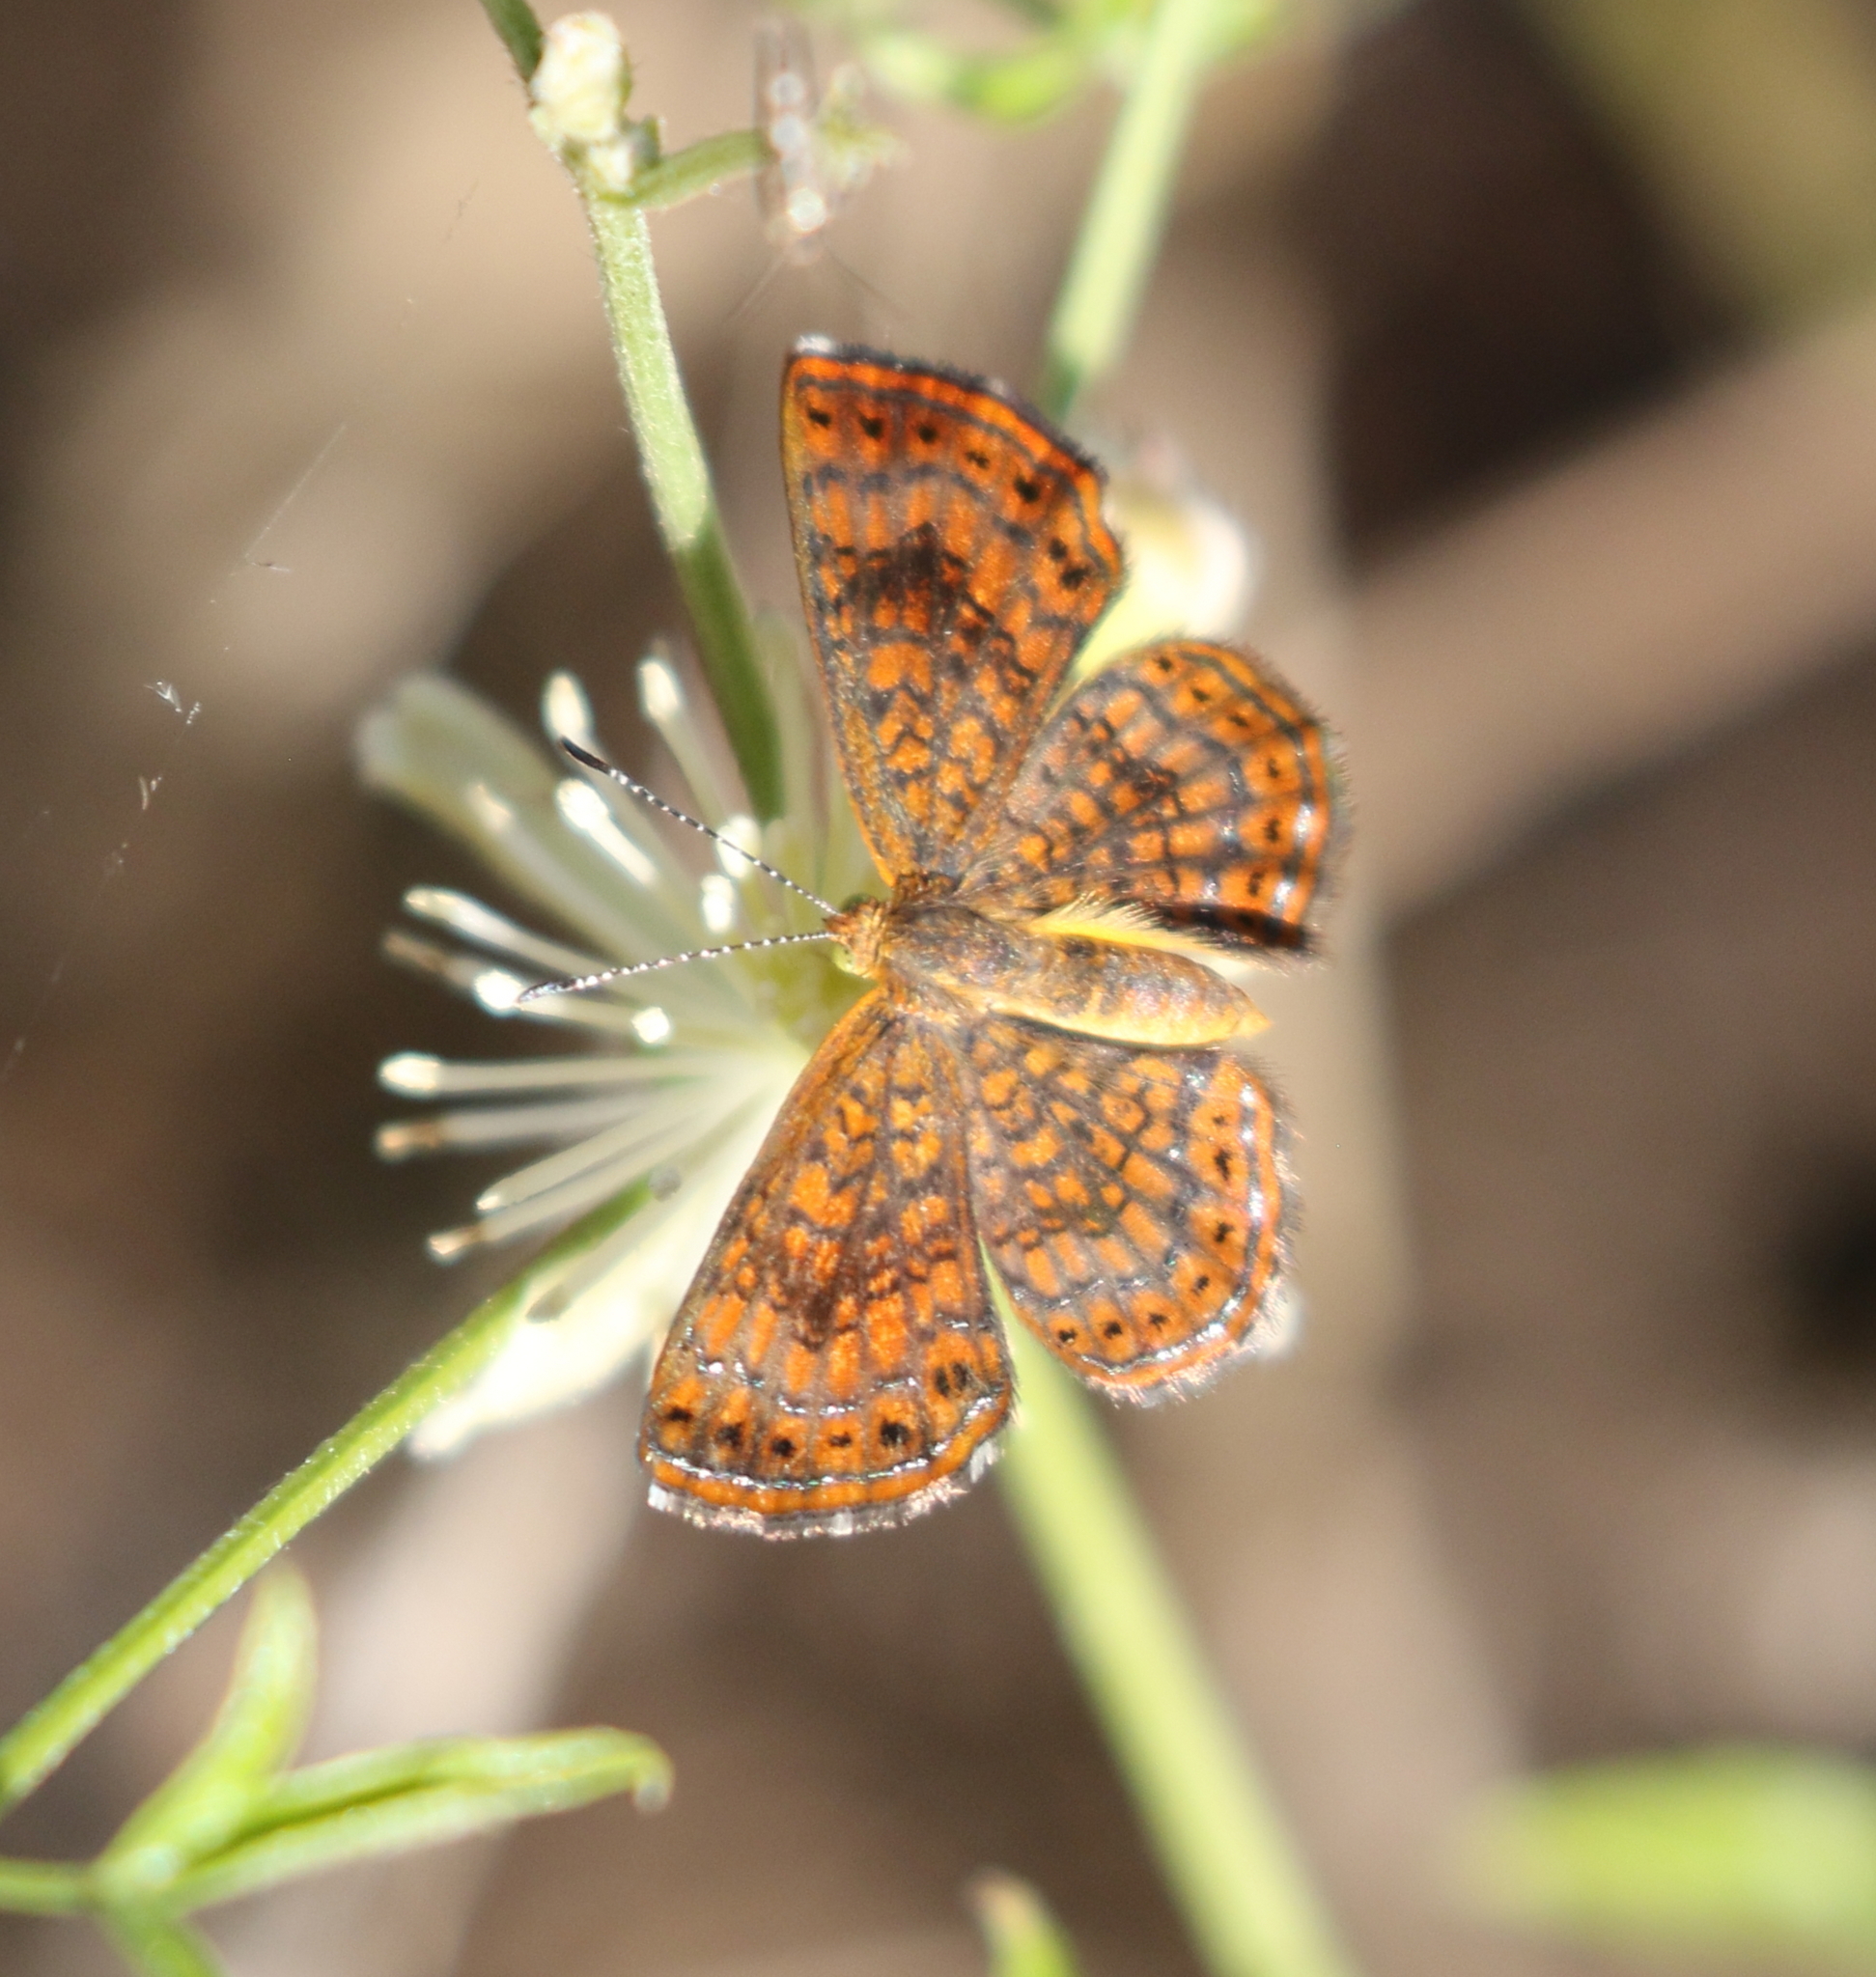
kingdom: Animalia
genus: Calephelis
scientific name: Calephelis nemesis
